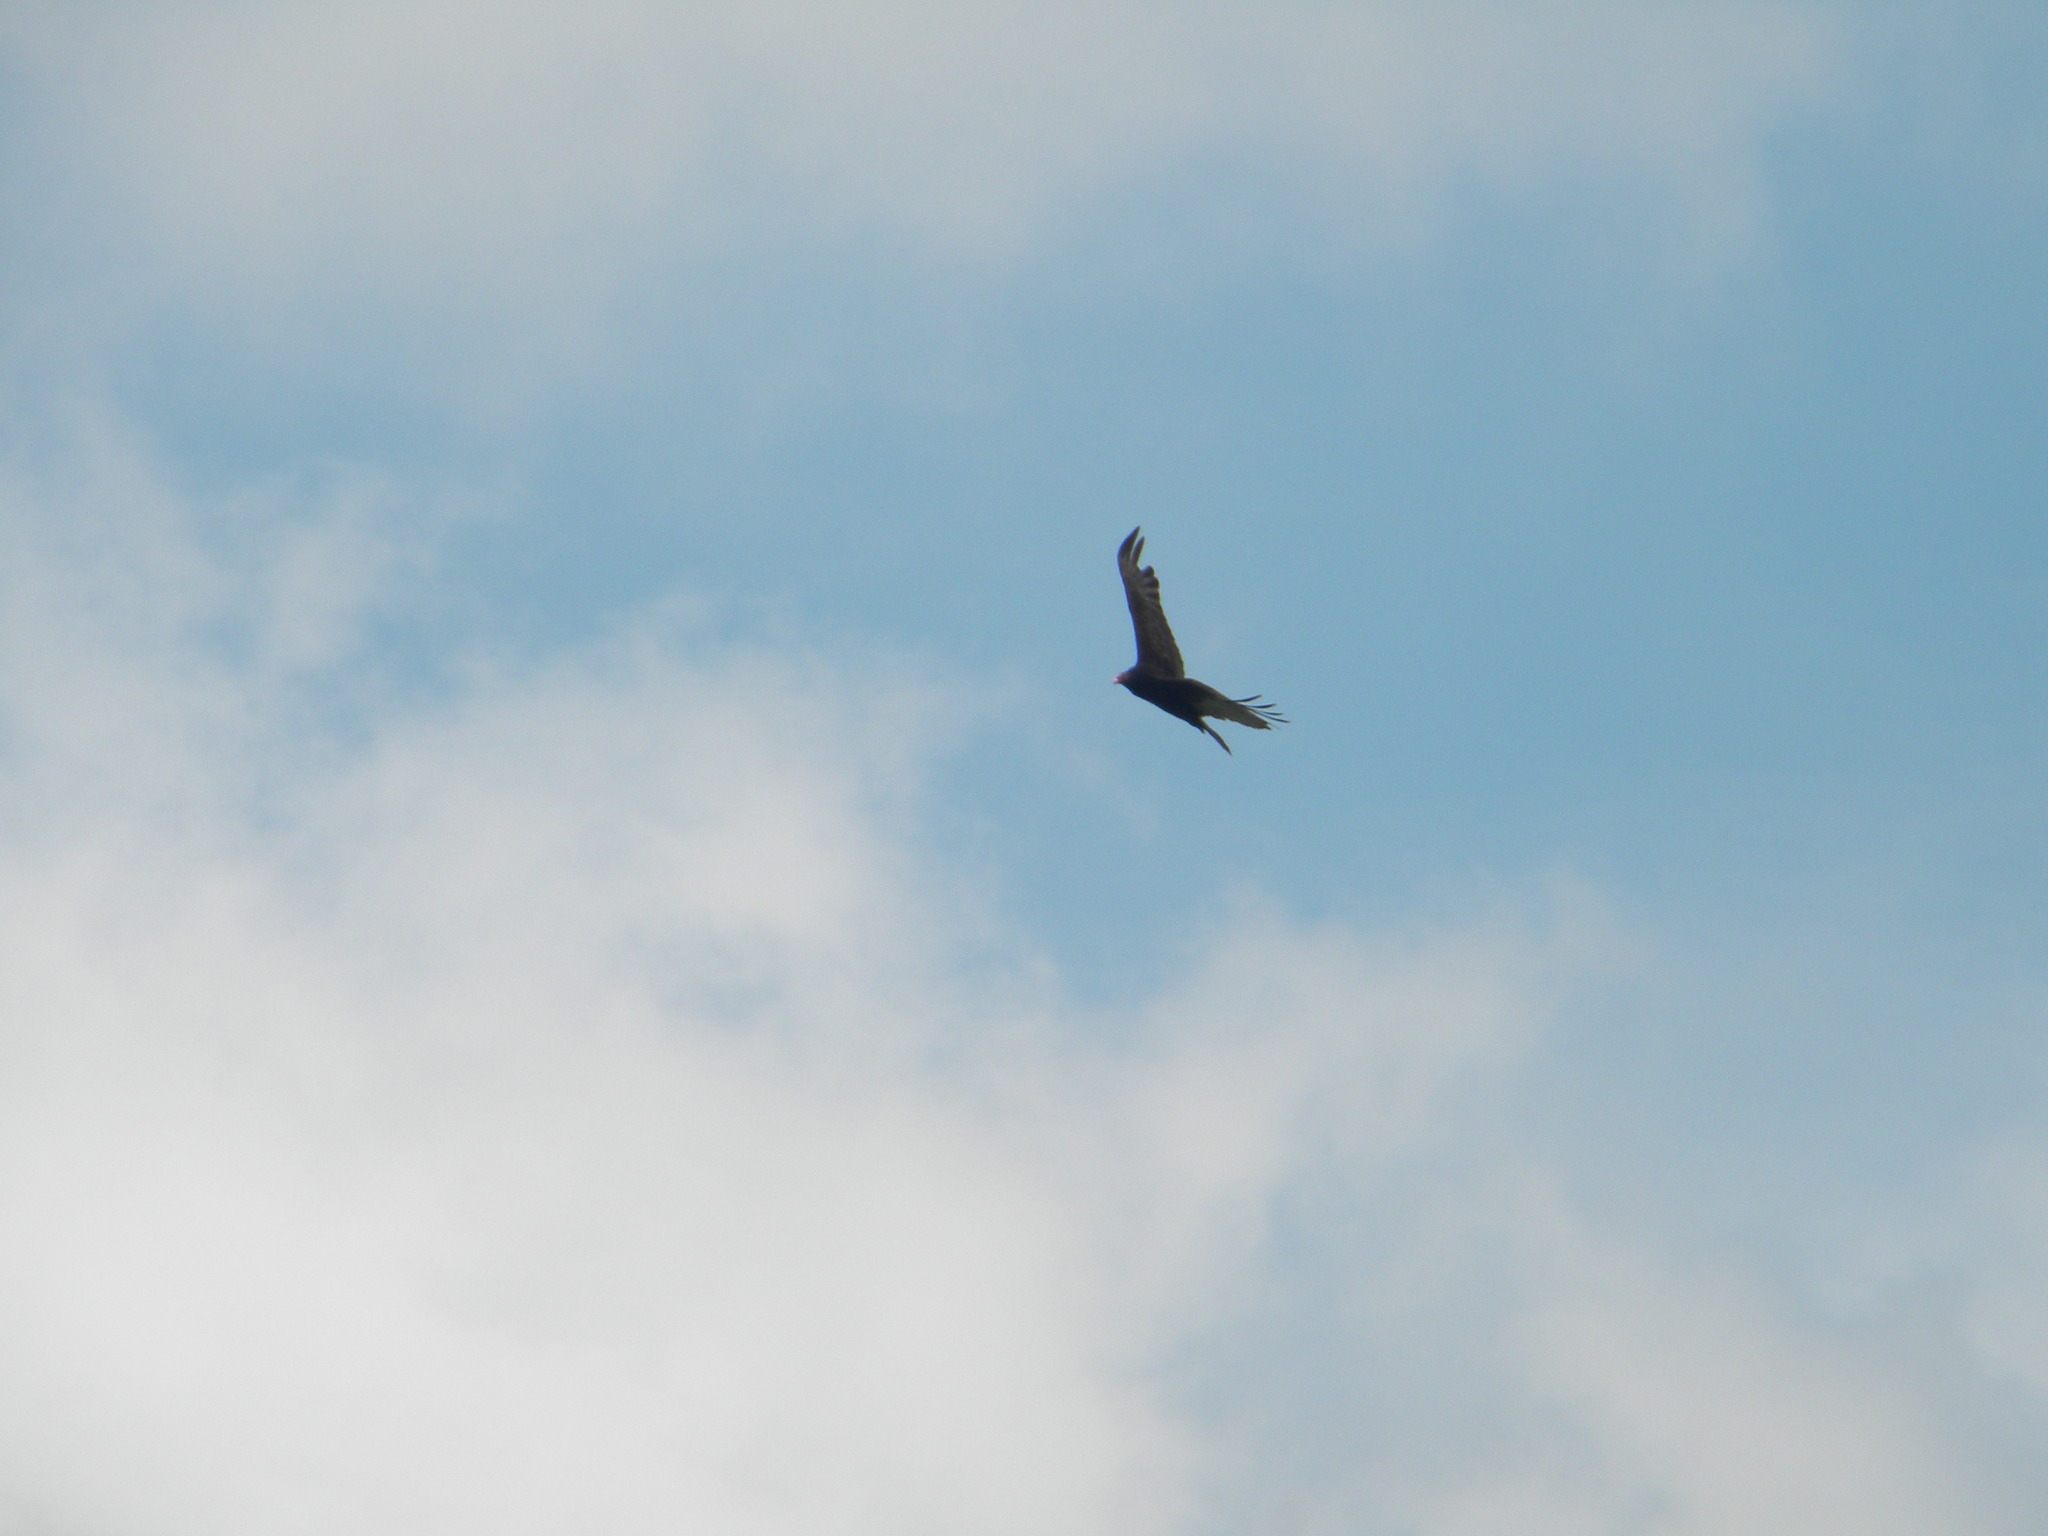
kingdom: Animalia
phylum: Chordata
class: Aves
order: Accipitriformes
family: Cathartidae
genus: Cathartes
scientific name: Cathartes aura
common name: Turkey vulture
